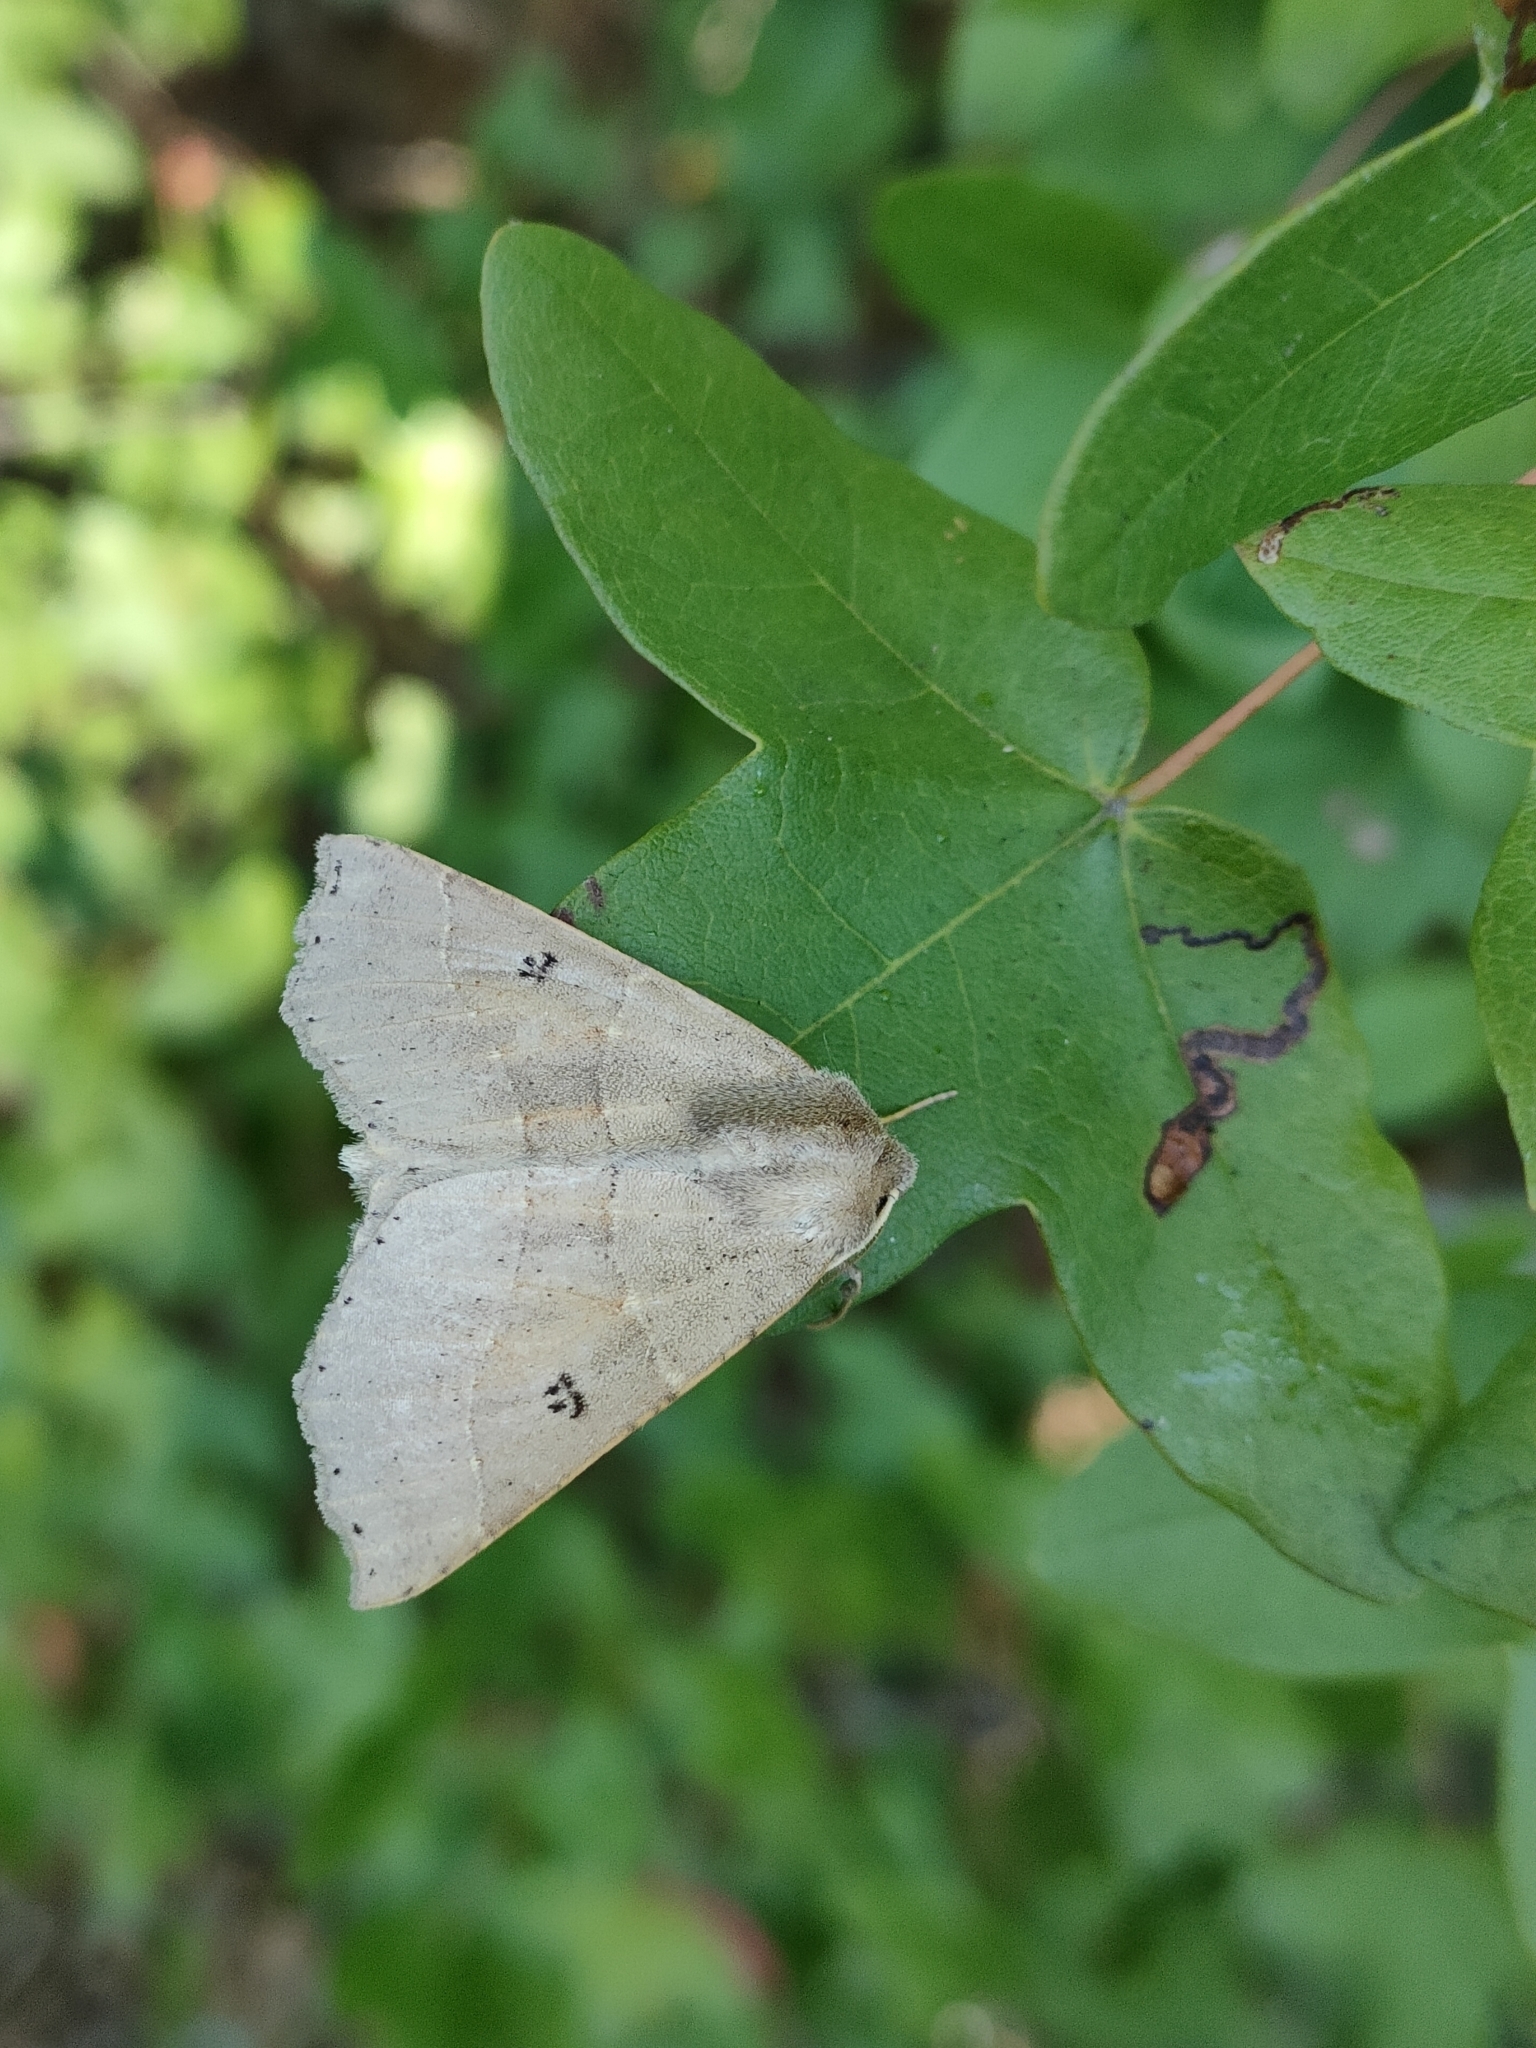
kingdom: Animalia
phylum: Arthropoda
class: Insecta
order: Lepidoptera
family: Geometridae
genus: Crocallis
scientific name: Crocallis dardoinaria
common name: Dusky scalloped oak
